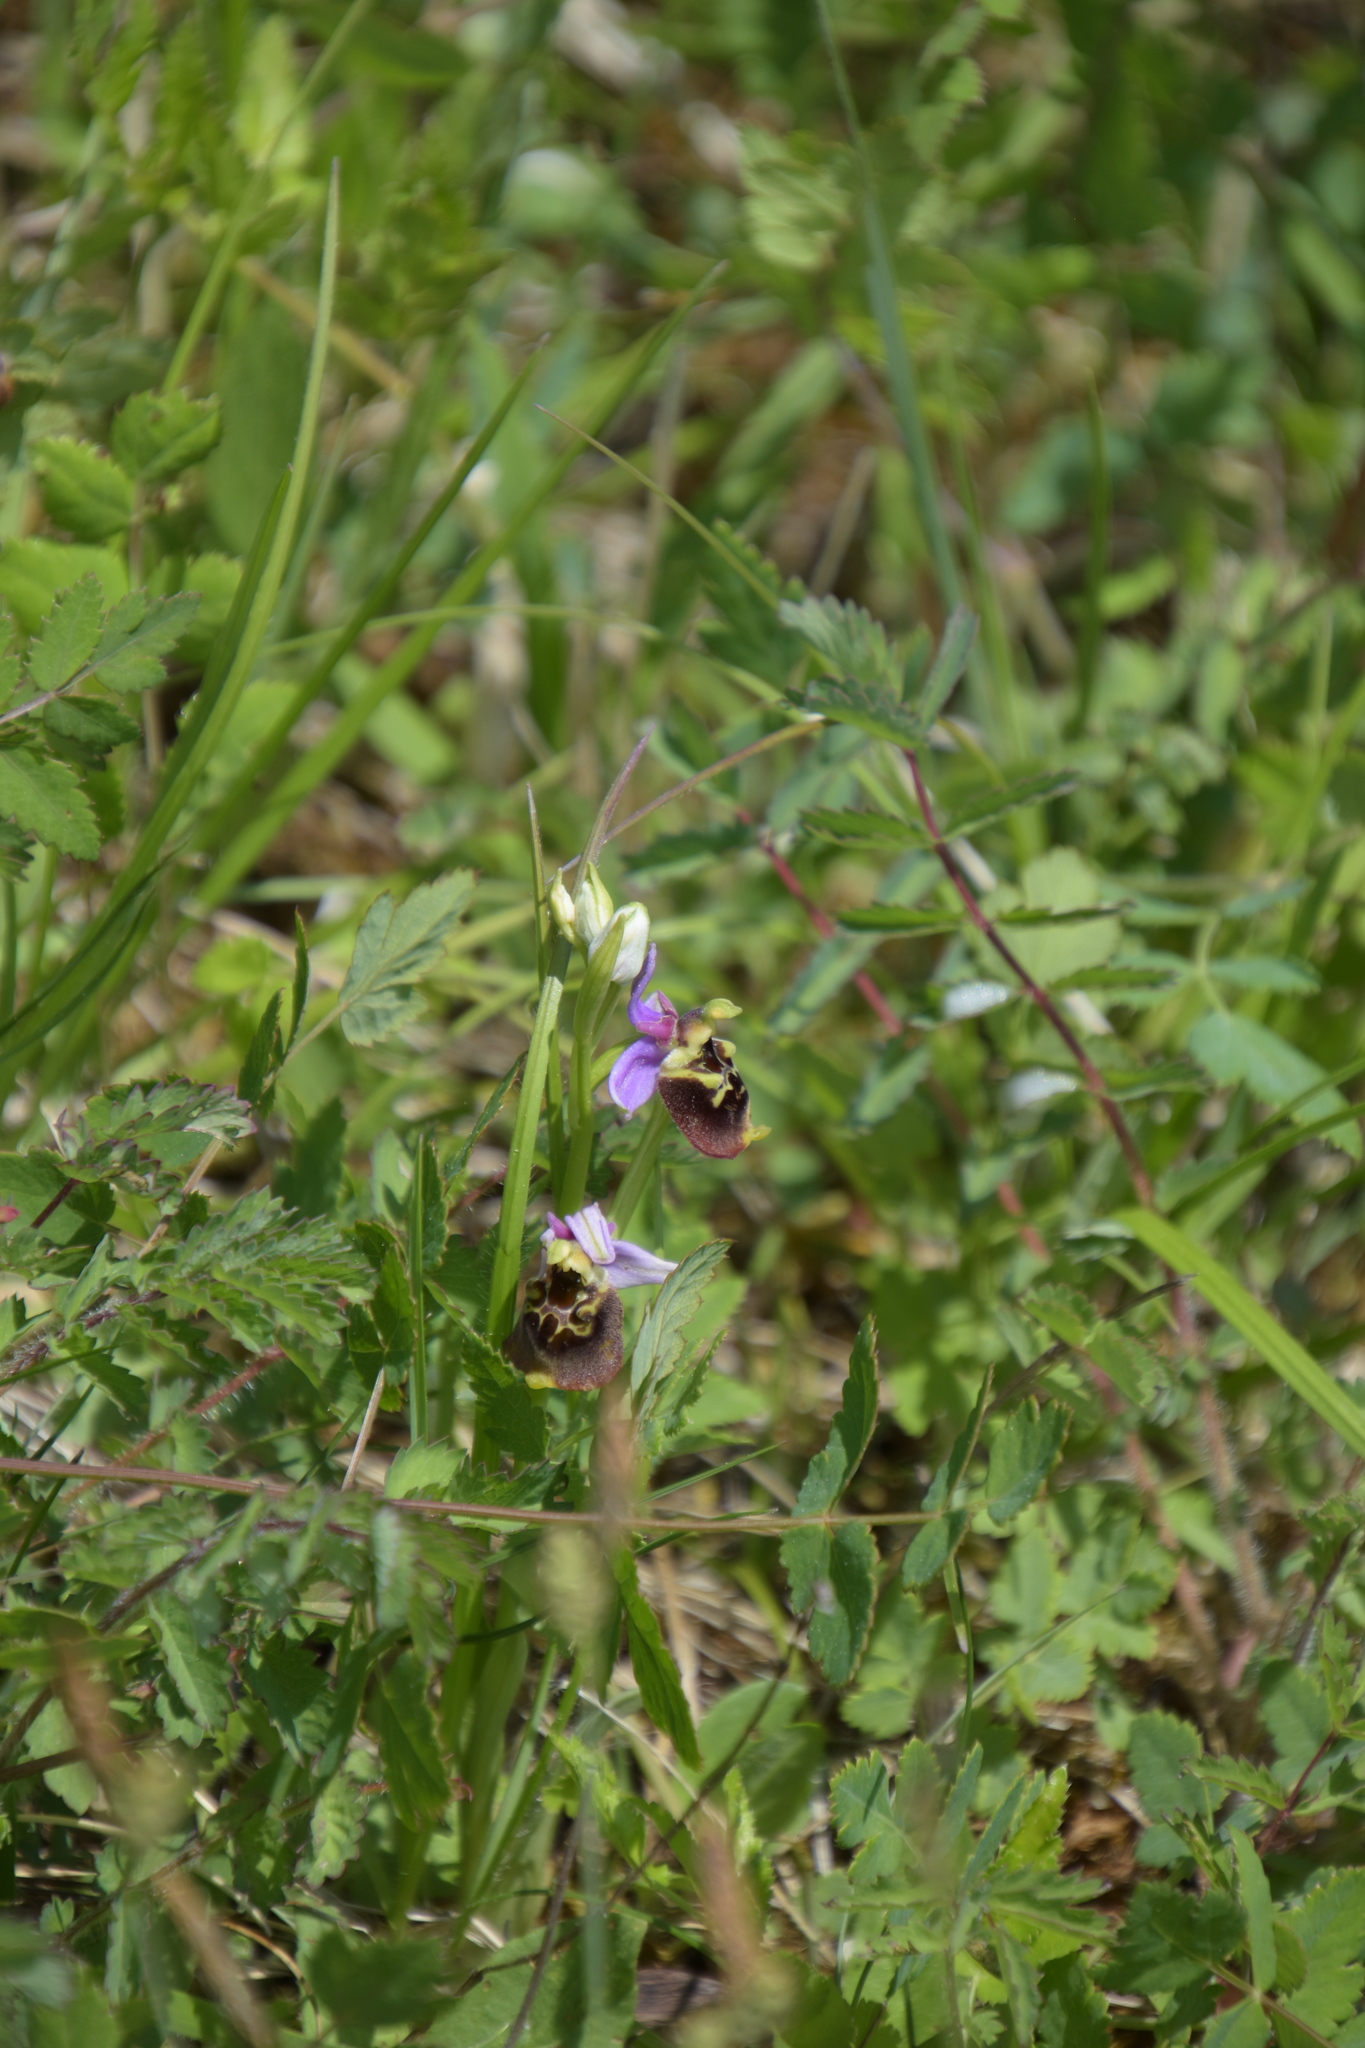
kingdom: Plantae
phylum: Tracheophyta
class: Liliopsida
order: Asparagales
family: Orchidaceae
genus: Ophrys
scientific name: Ophrys holosericea
